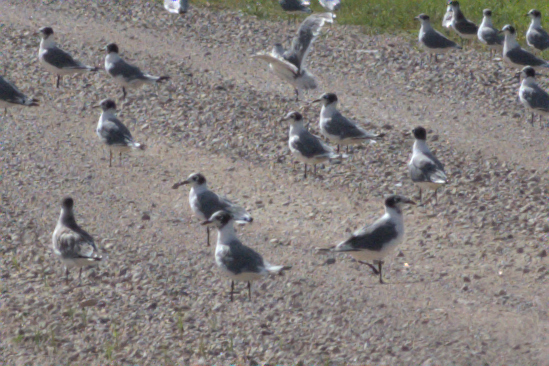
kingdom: Animalia
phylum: Chordata
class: Aves
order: Charadriiformes
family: Laridae
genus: Leucophaeus
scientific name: Leucophaeus pipixcan
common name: Franklin's gull
